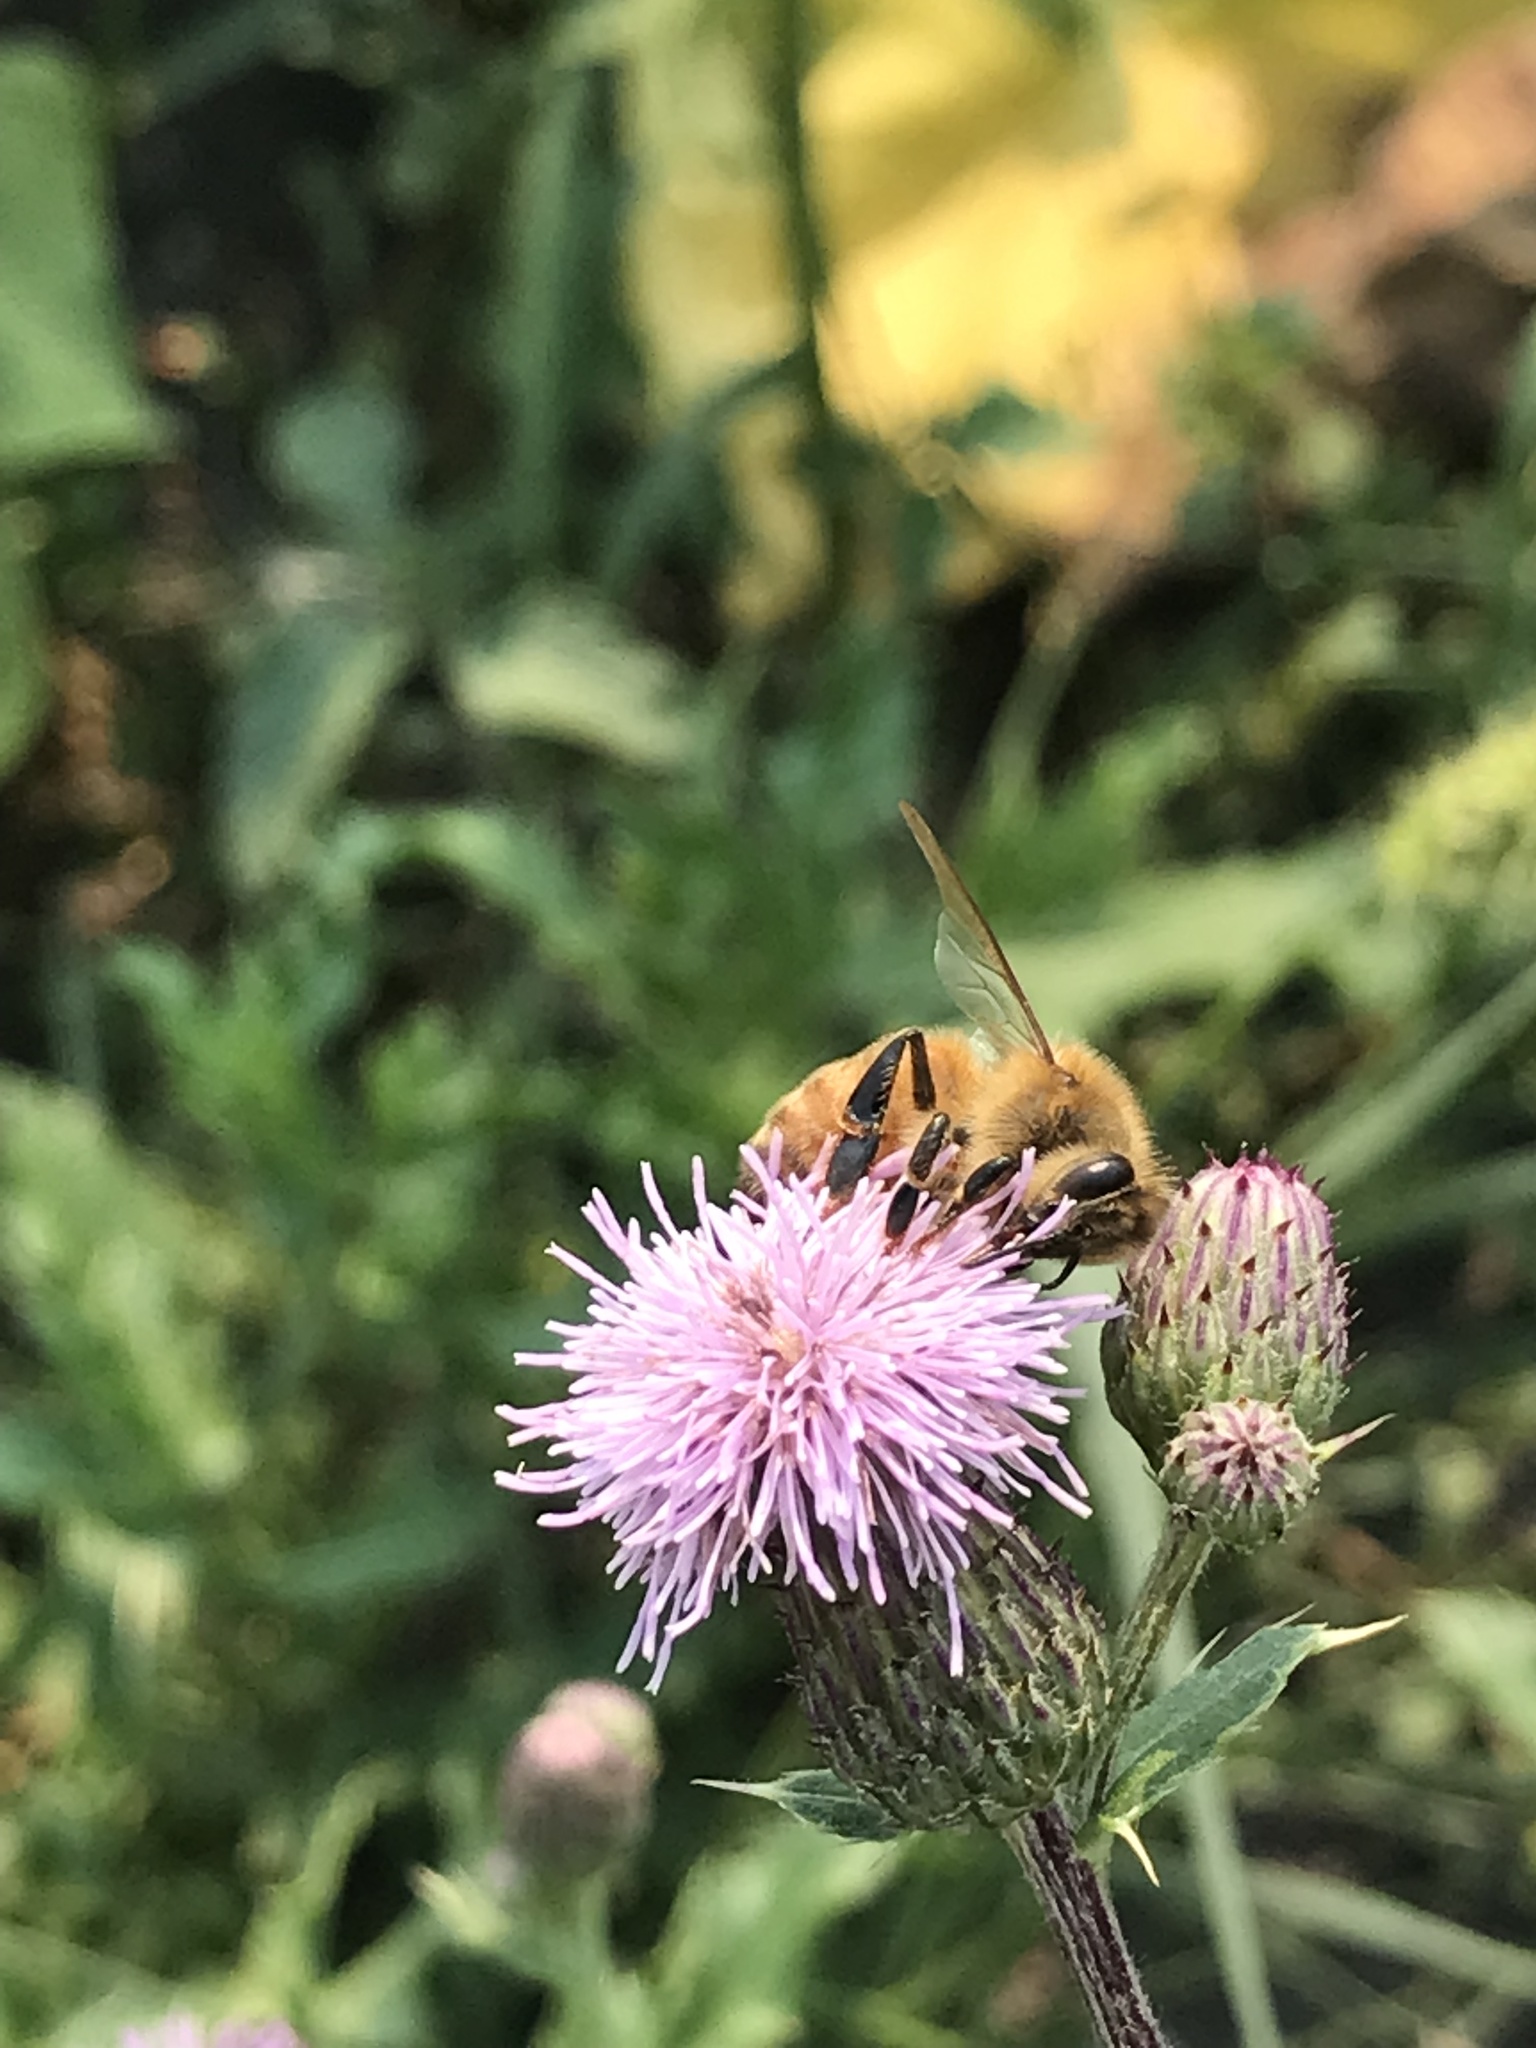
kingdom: Animalia
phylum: Arthropoda
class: Insecta
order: Hymenoptera
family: Apidae
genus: Apis
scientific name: Apis mellifera
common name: Honey bee
